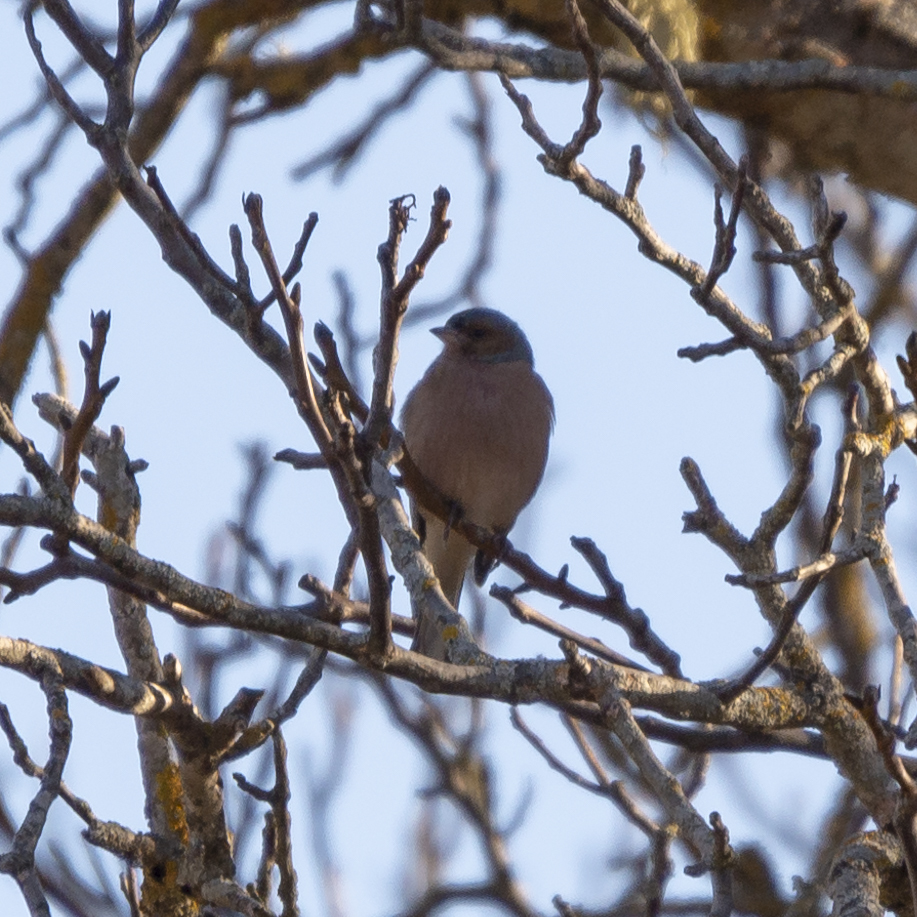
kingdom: Animalia
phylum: Chordata
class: Aves
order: Passeriformes
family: Fringillidae
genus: Fringilla
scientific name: Fringilla coelebs
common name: Common chaffinch
